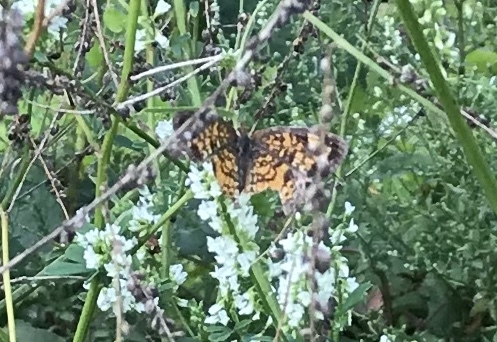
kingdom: Animalia
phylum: Arthropoda
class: Insecta
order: Lepidoptera
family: Nymphalidae
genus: Phyciodes
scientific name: Phyciodes tharos
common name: Pearl crescent
